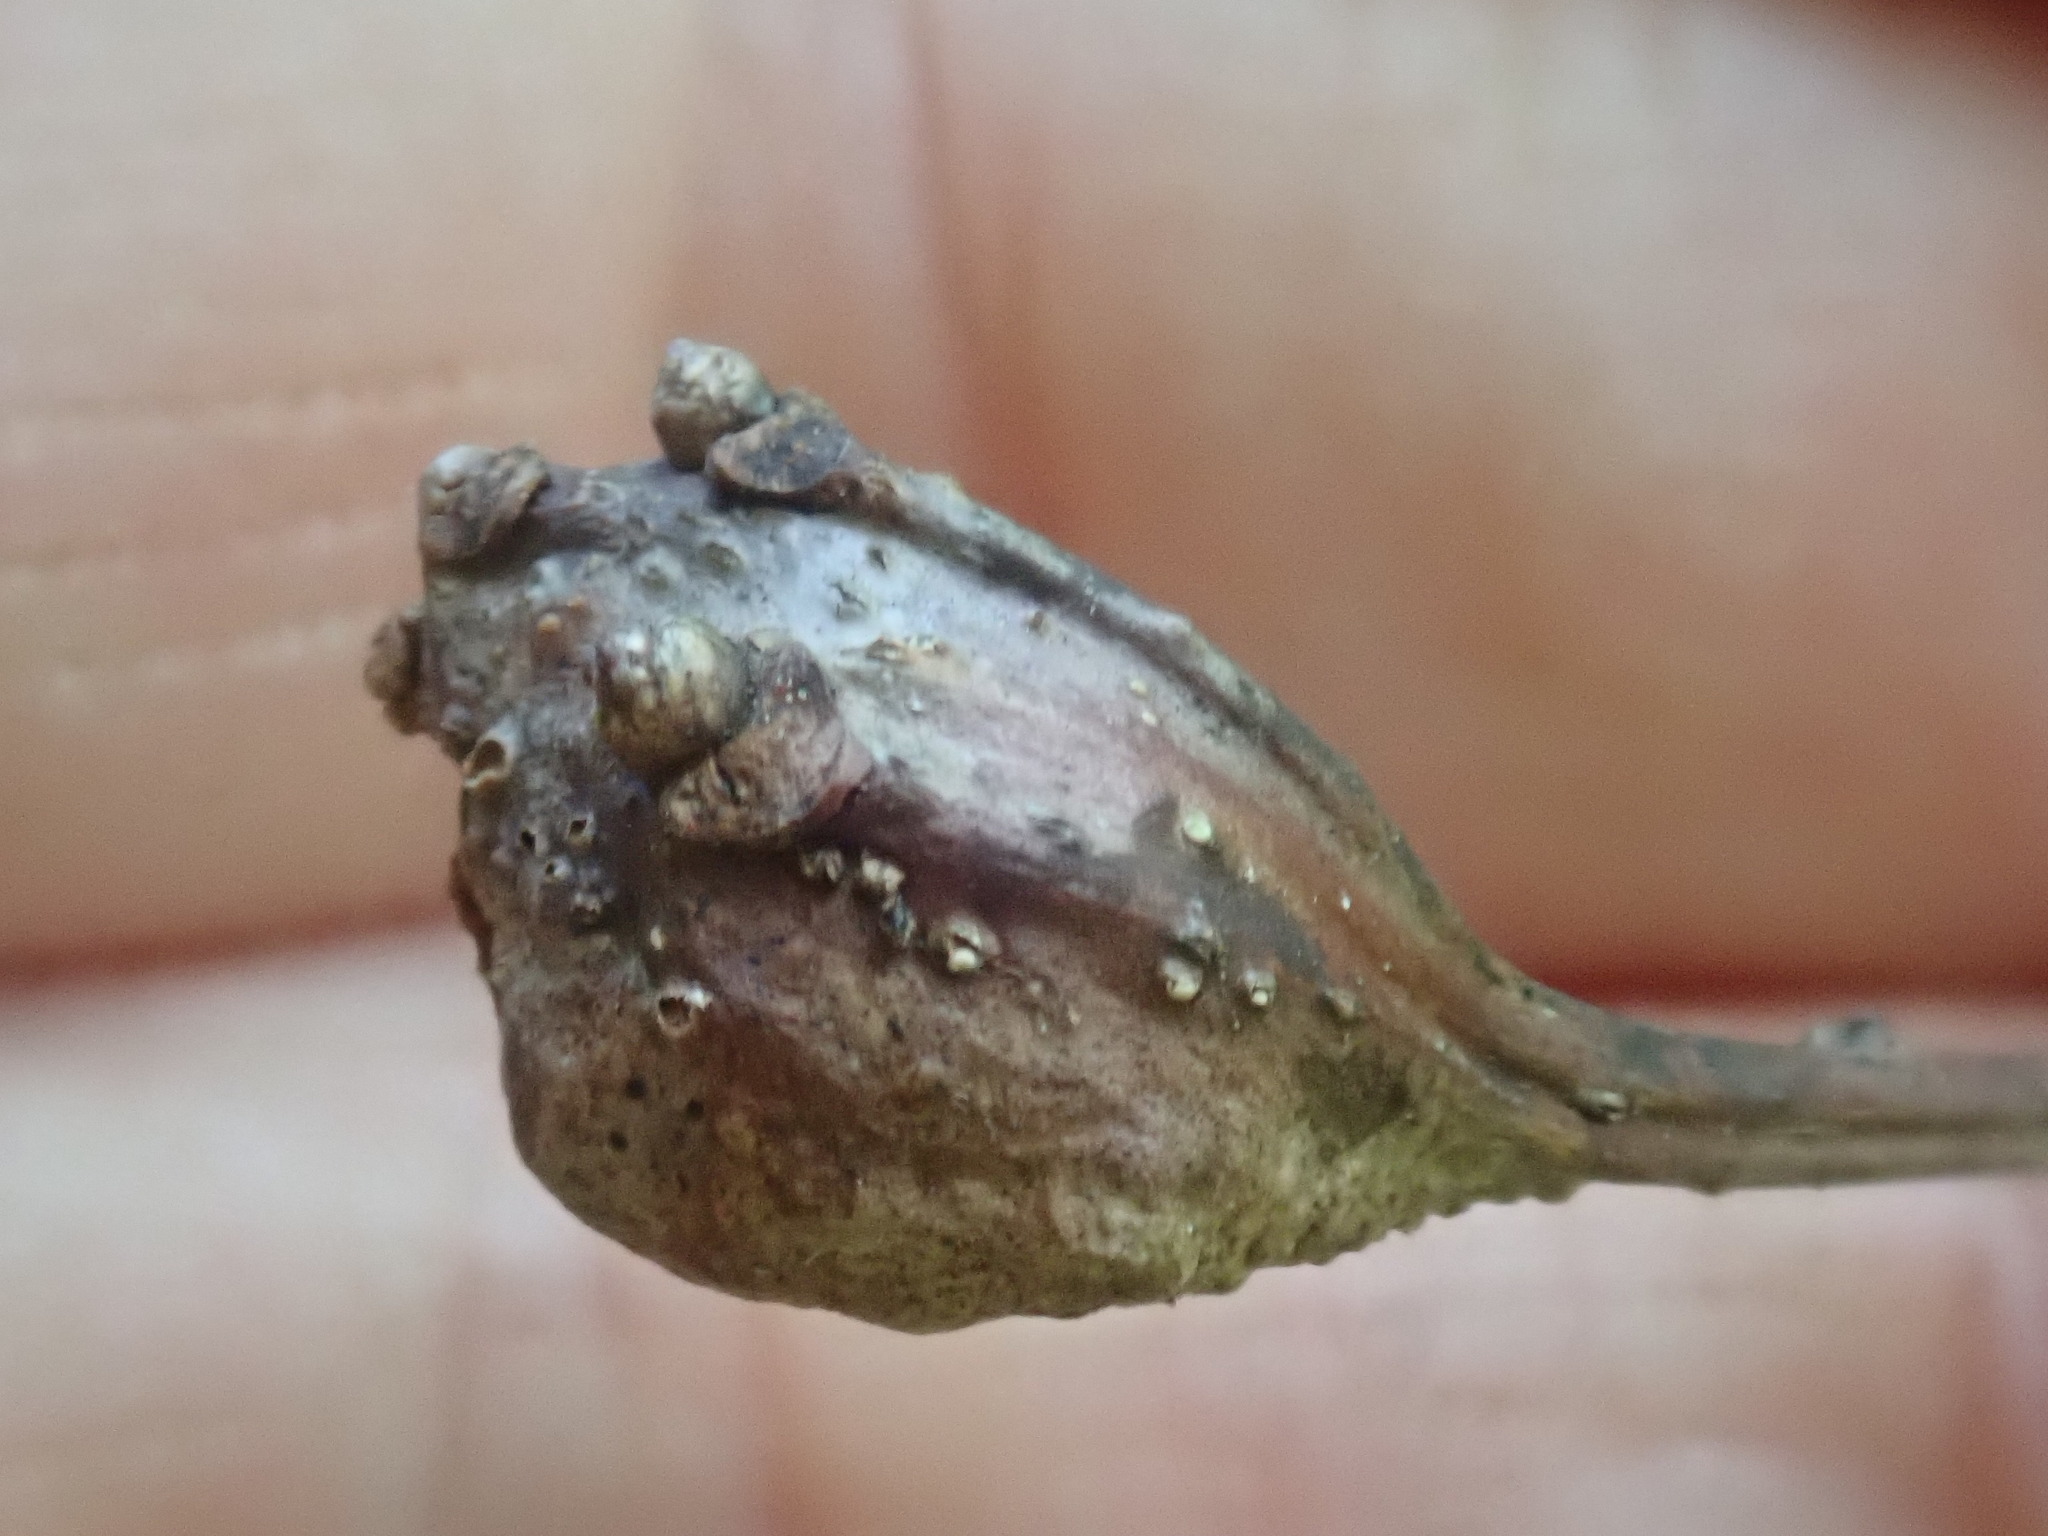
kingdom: Animalia
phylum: Arthropoda
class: Insecta
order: Hymenoptera
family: Cynipidae
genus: Callirhytis
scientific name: Callirhytis clavula
